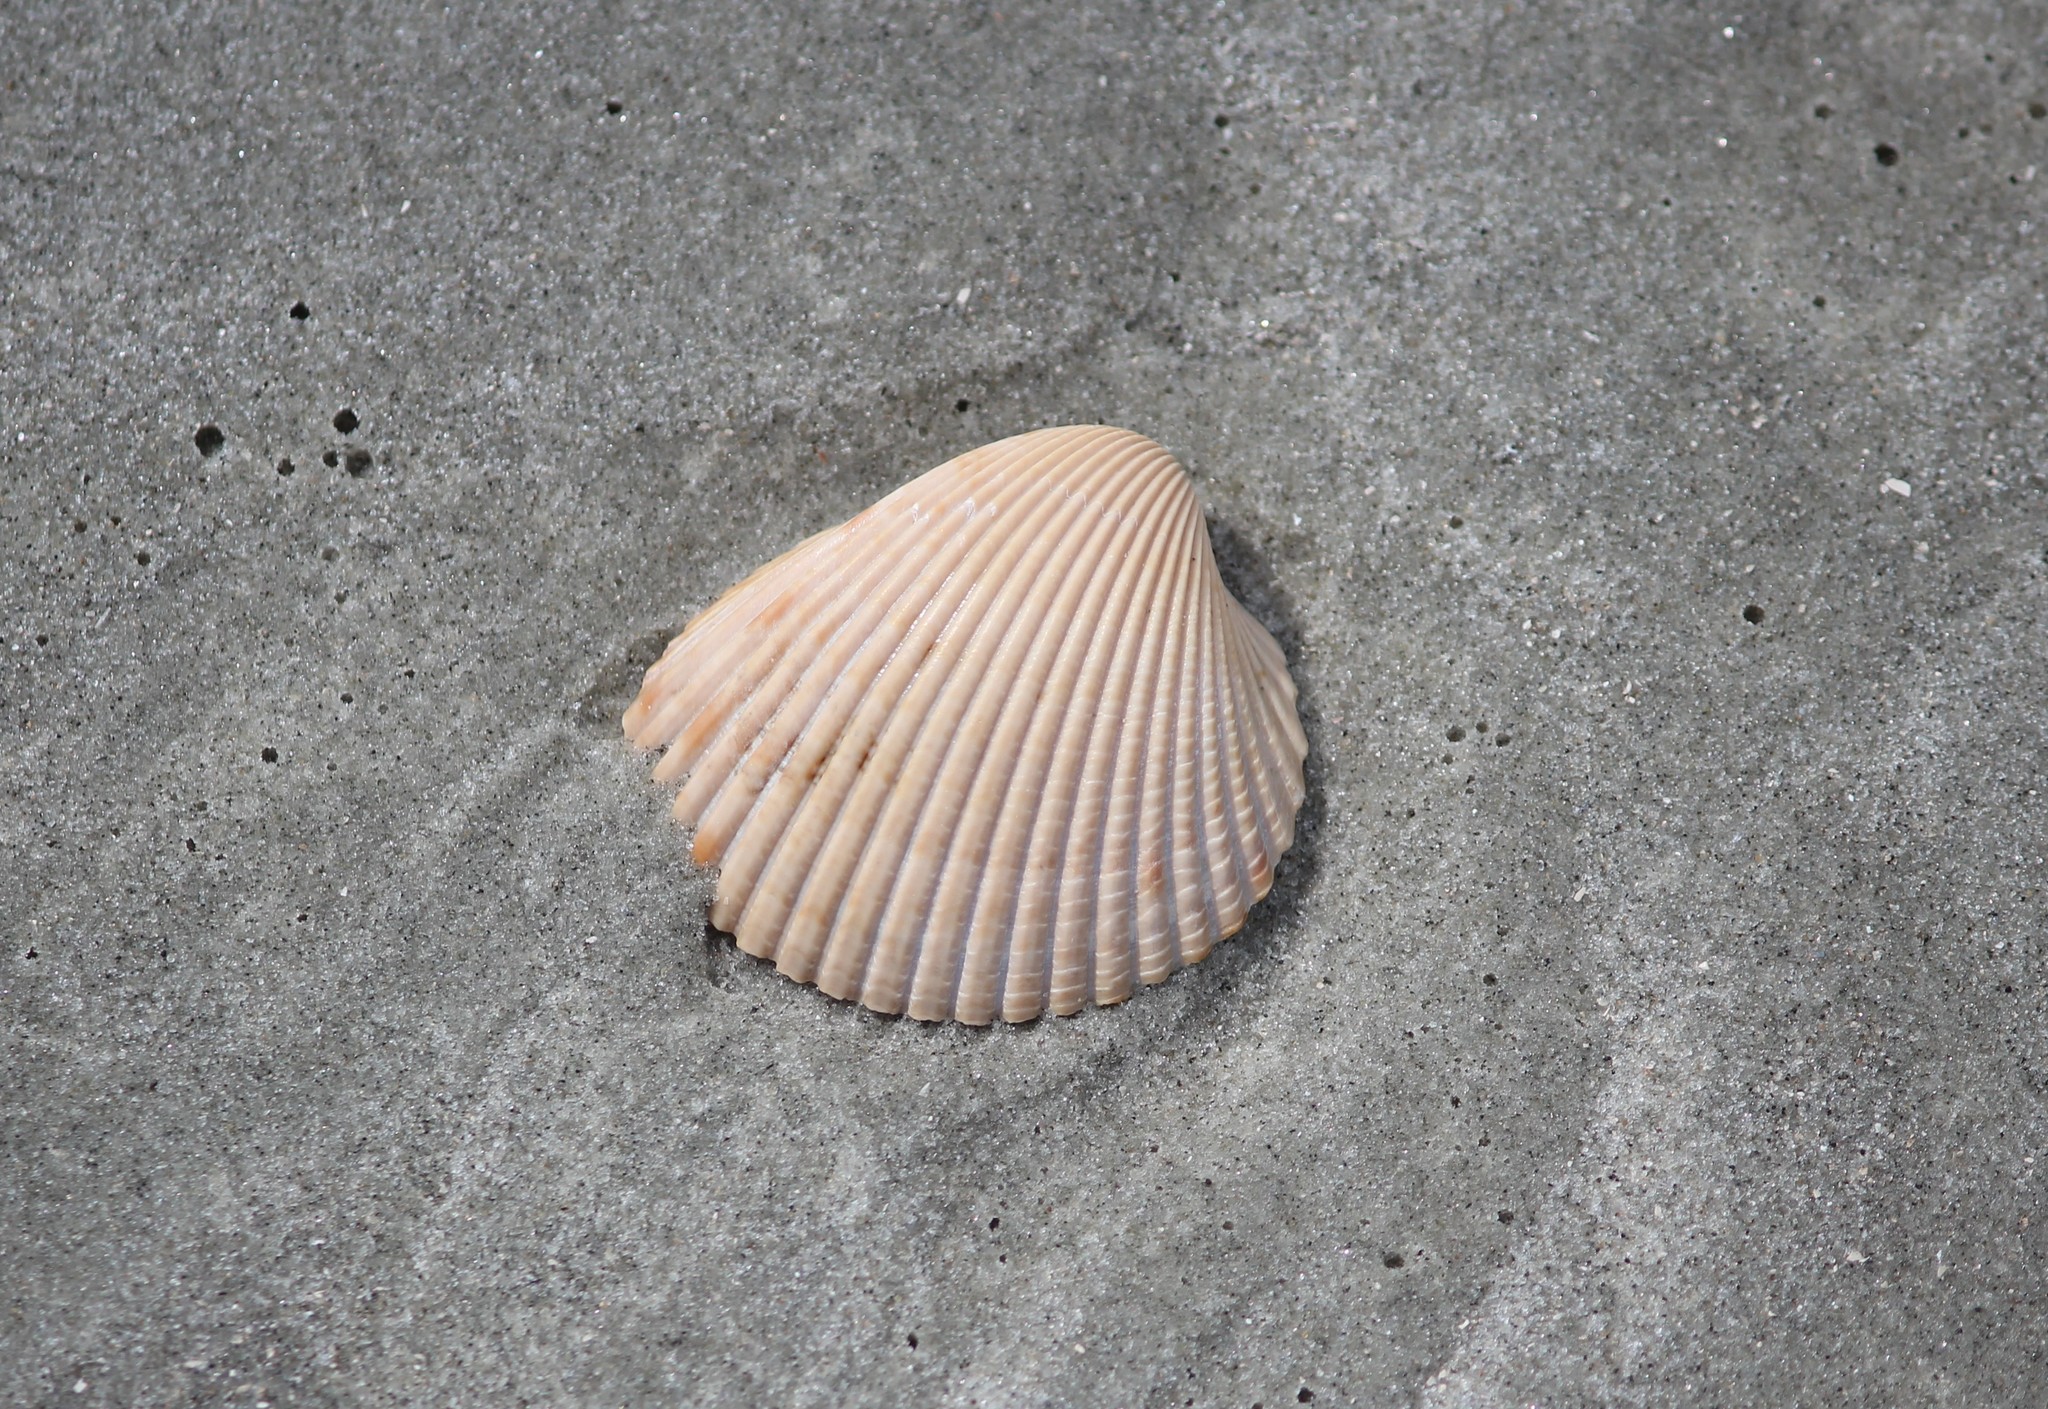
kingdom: Animalia
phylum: Mollusca
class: Bivalvia
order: Cardiida
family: Cardiidae
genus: Dinocardium
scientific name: Dinocardium robustum
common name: Atlantic giant cockle
